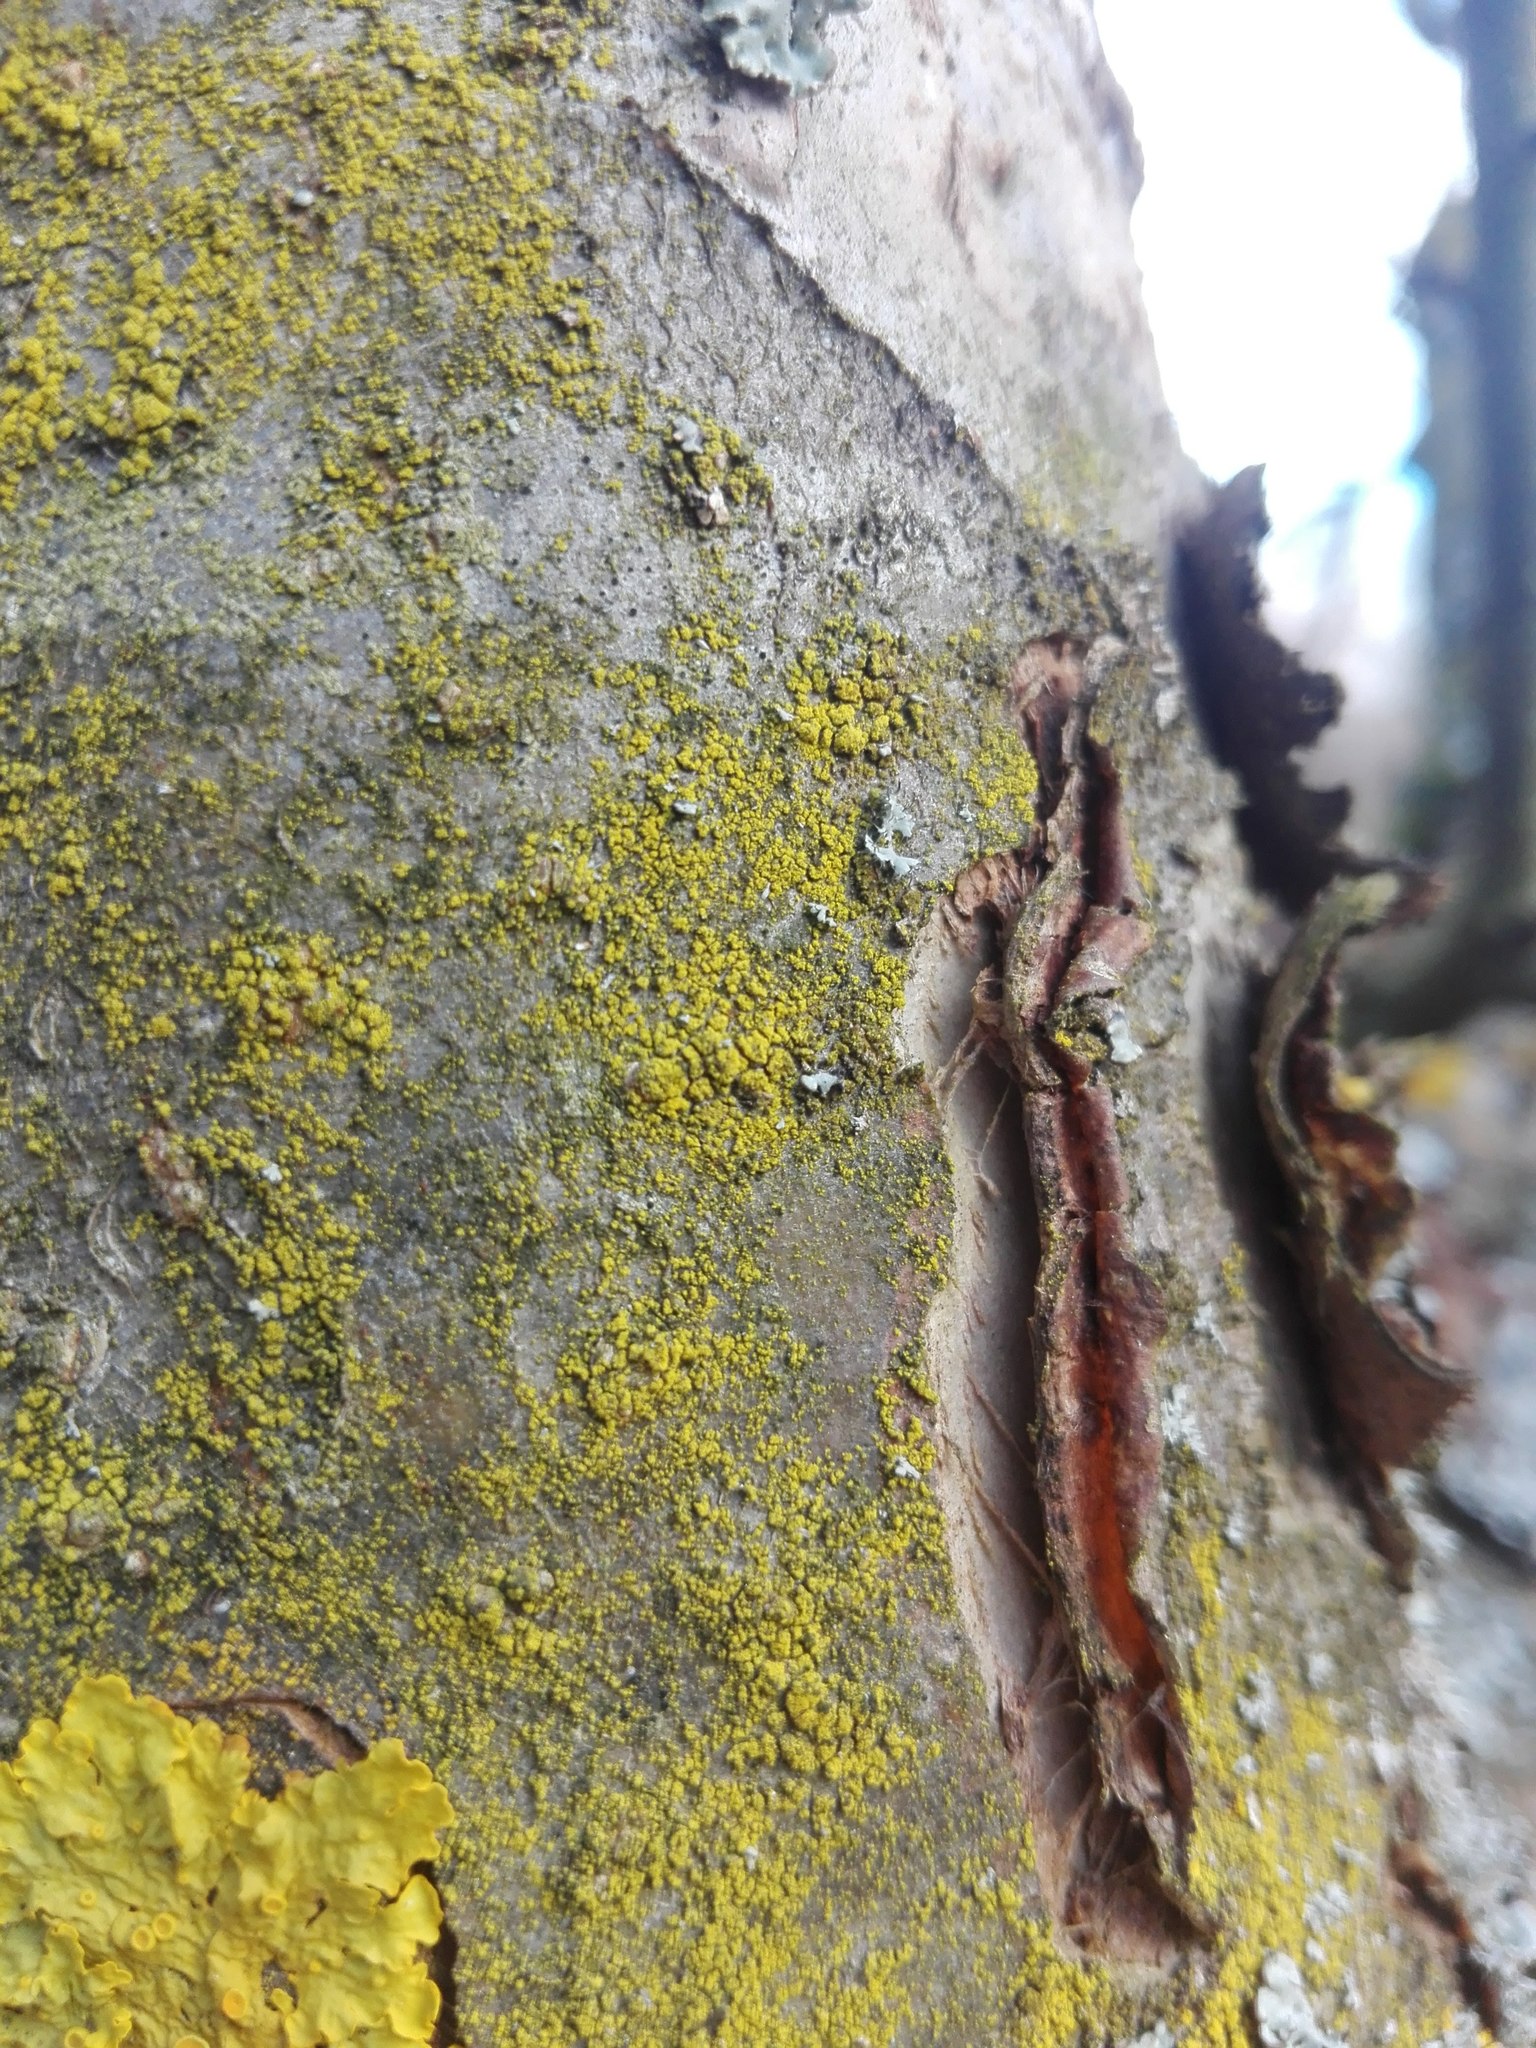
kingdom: Fungi
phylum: Ascomycota
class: Candelariomycetes
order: Candelariales
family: Candelariaceae
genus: Candelariella
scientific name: Candelariella xanthostigma
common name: Granular goldspeck lichen
